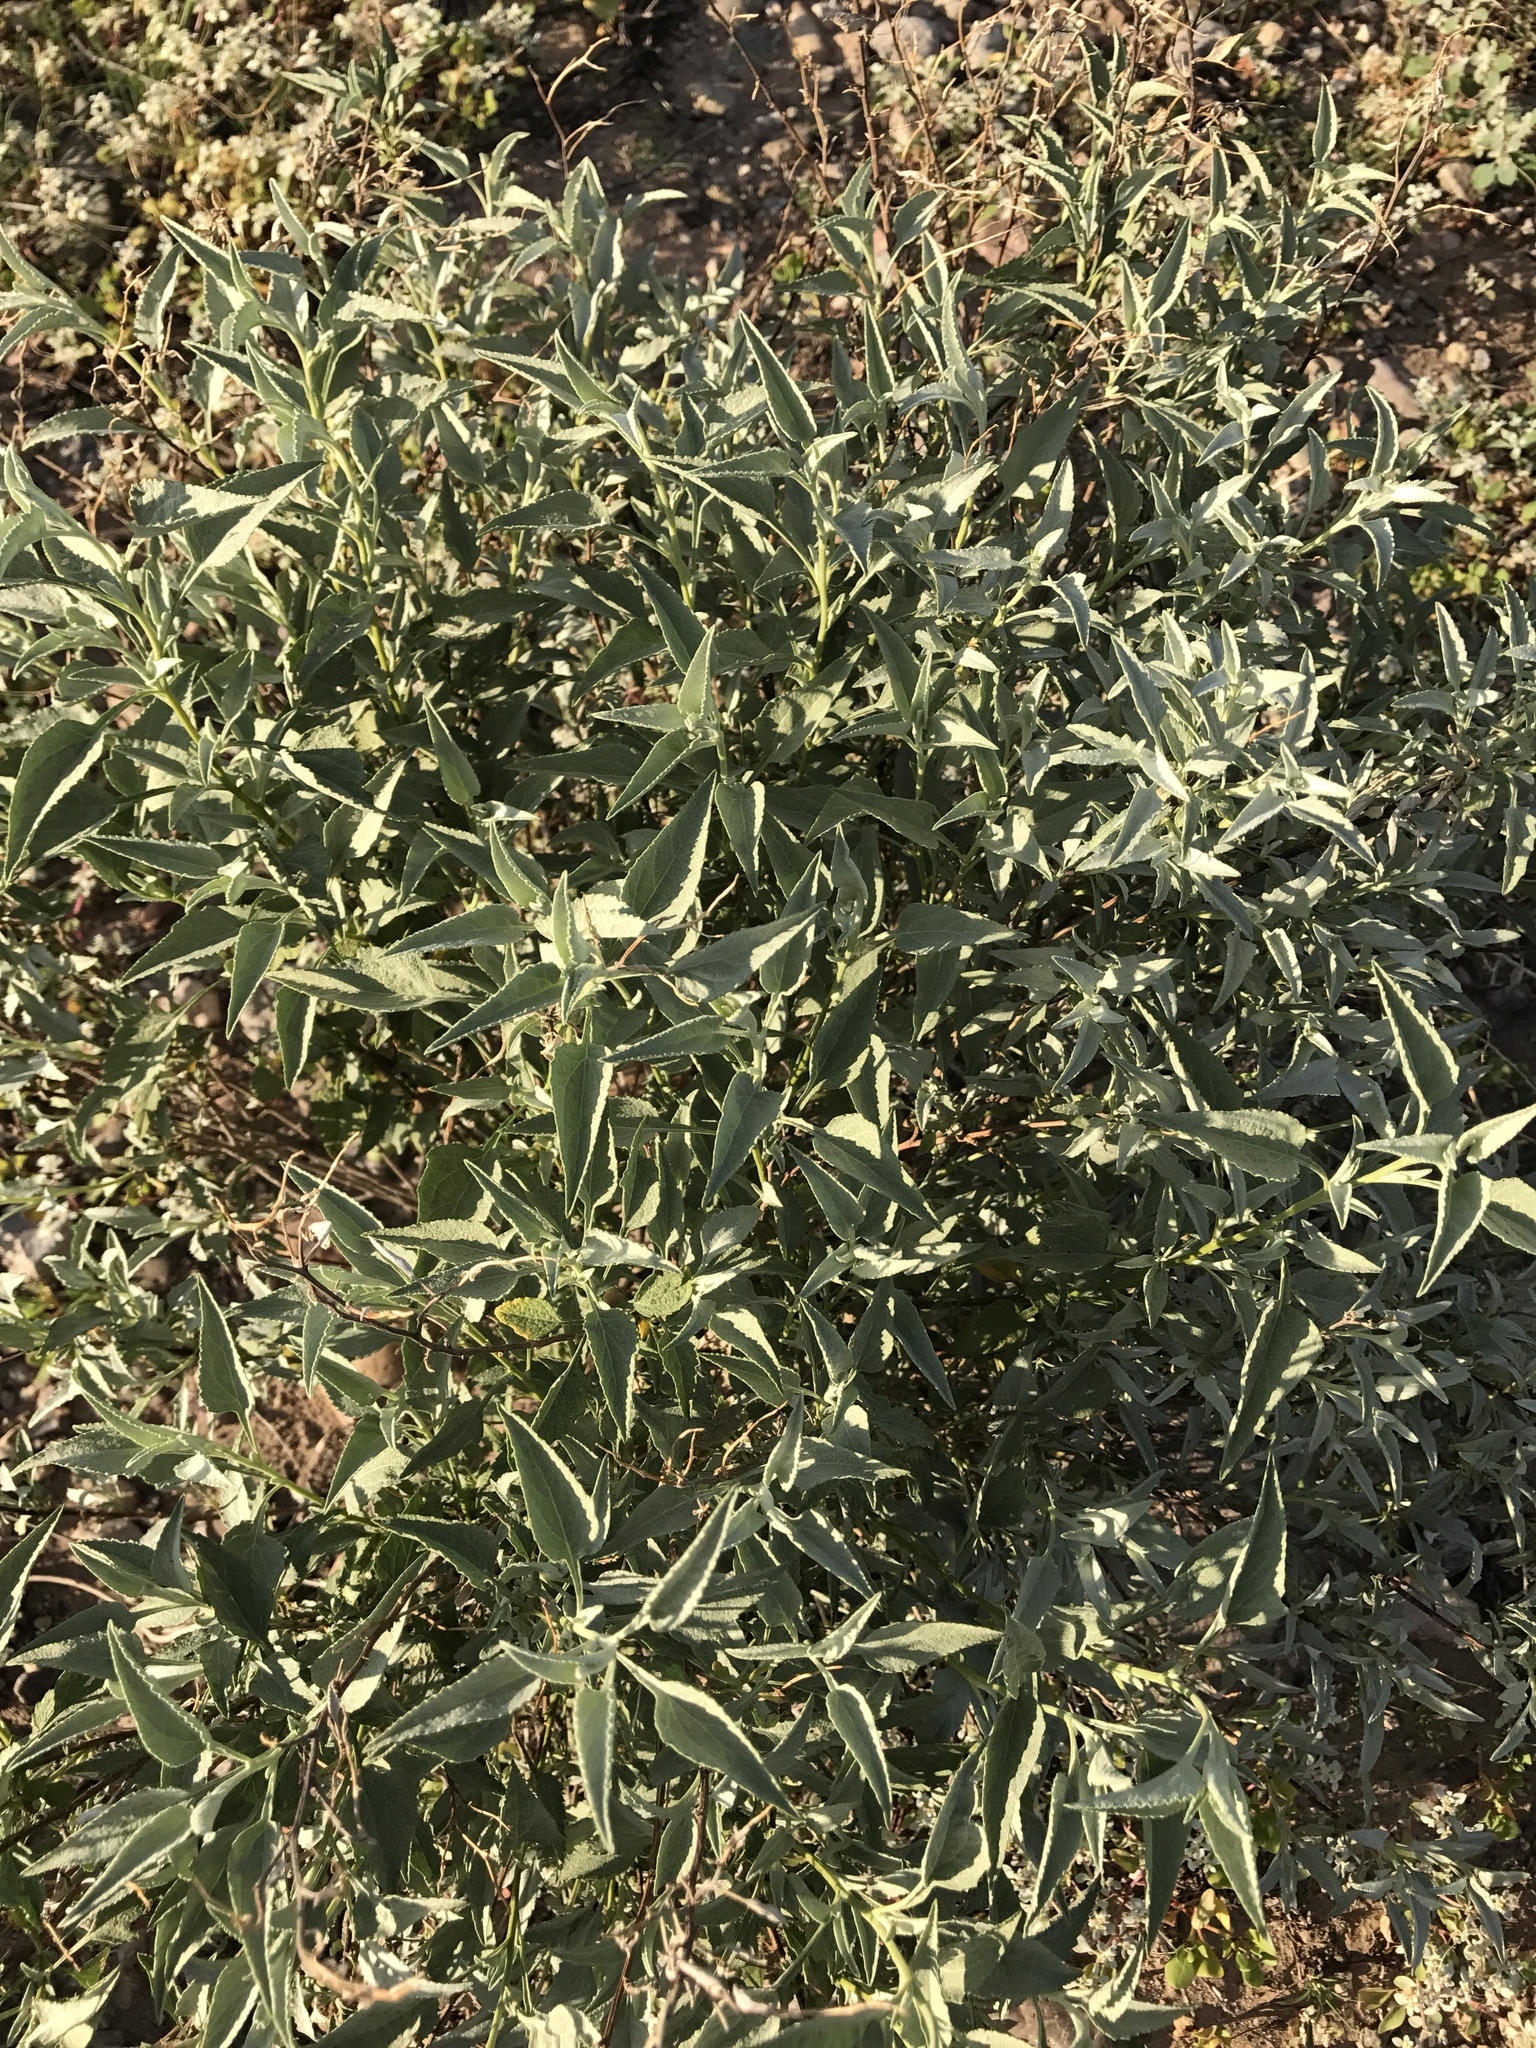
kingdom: Plantae
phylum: Tracheophyta
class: Magnoliopsida
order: Asterales
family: Asteraceae
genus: Ambrosia
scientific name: Ambrosia deltoidea
